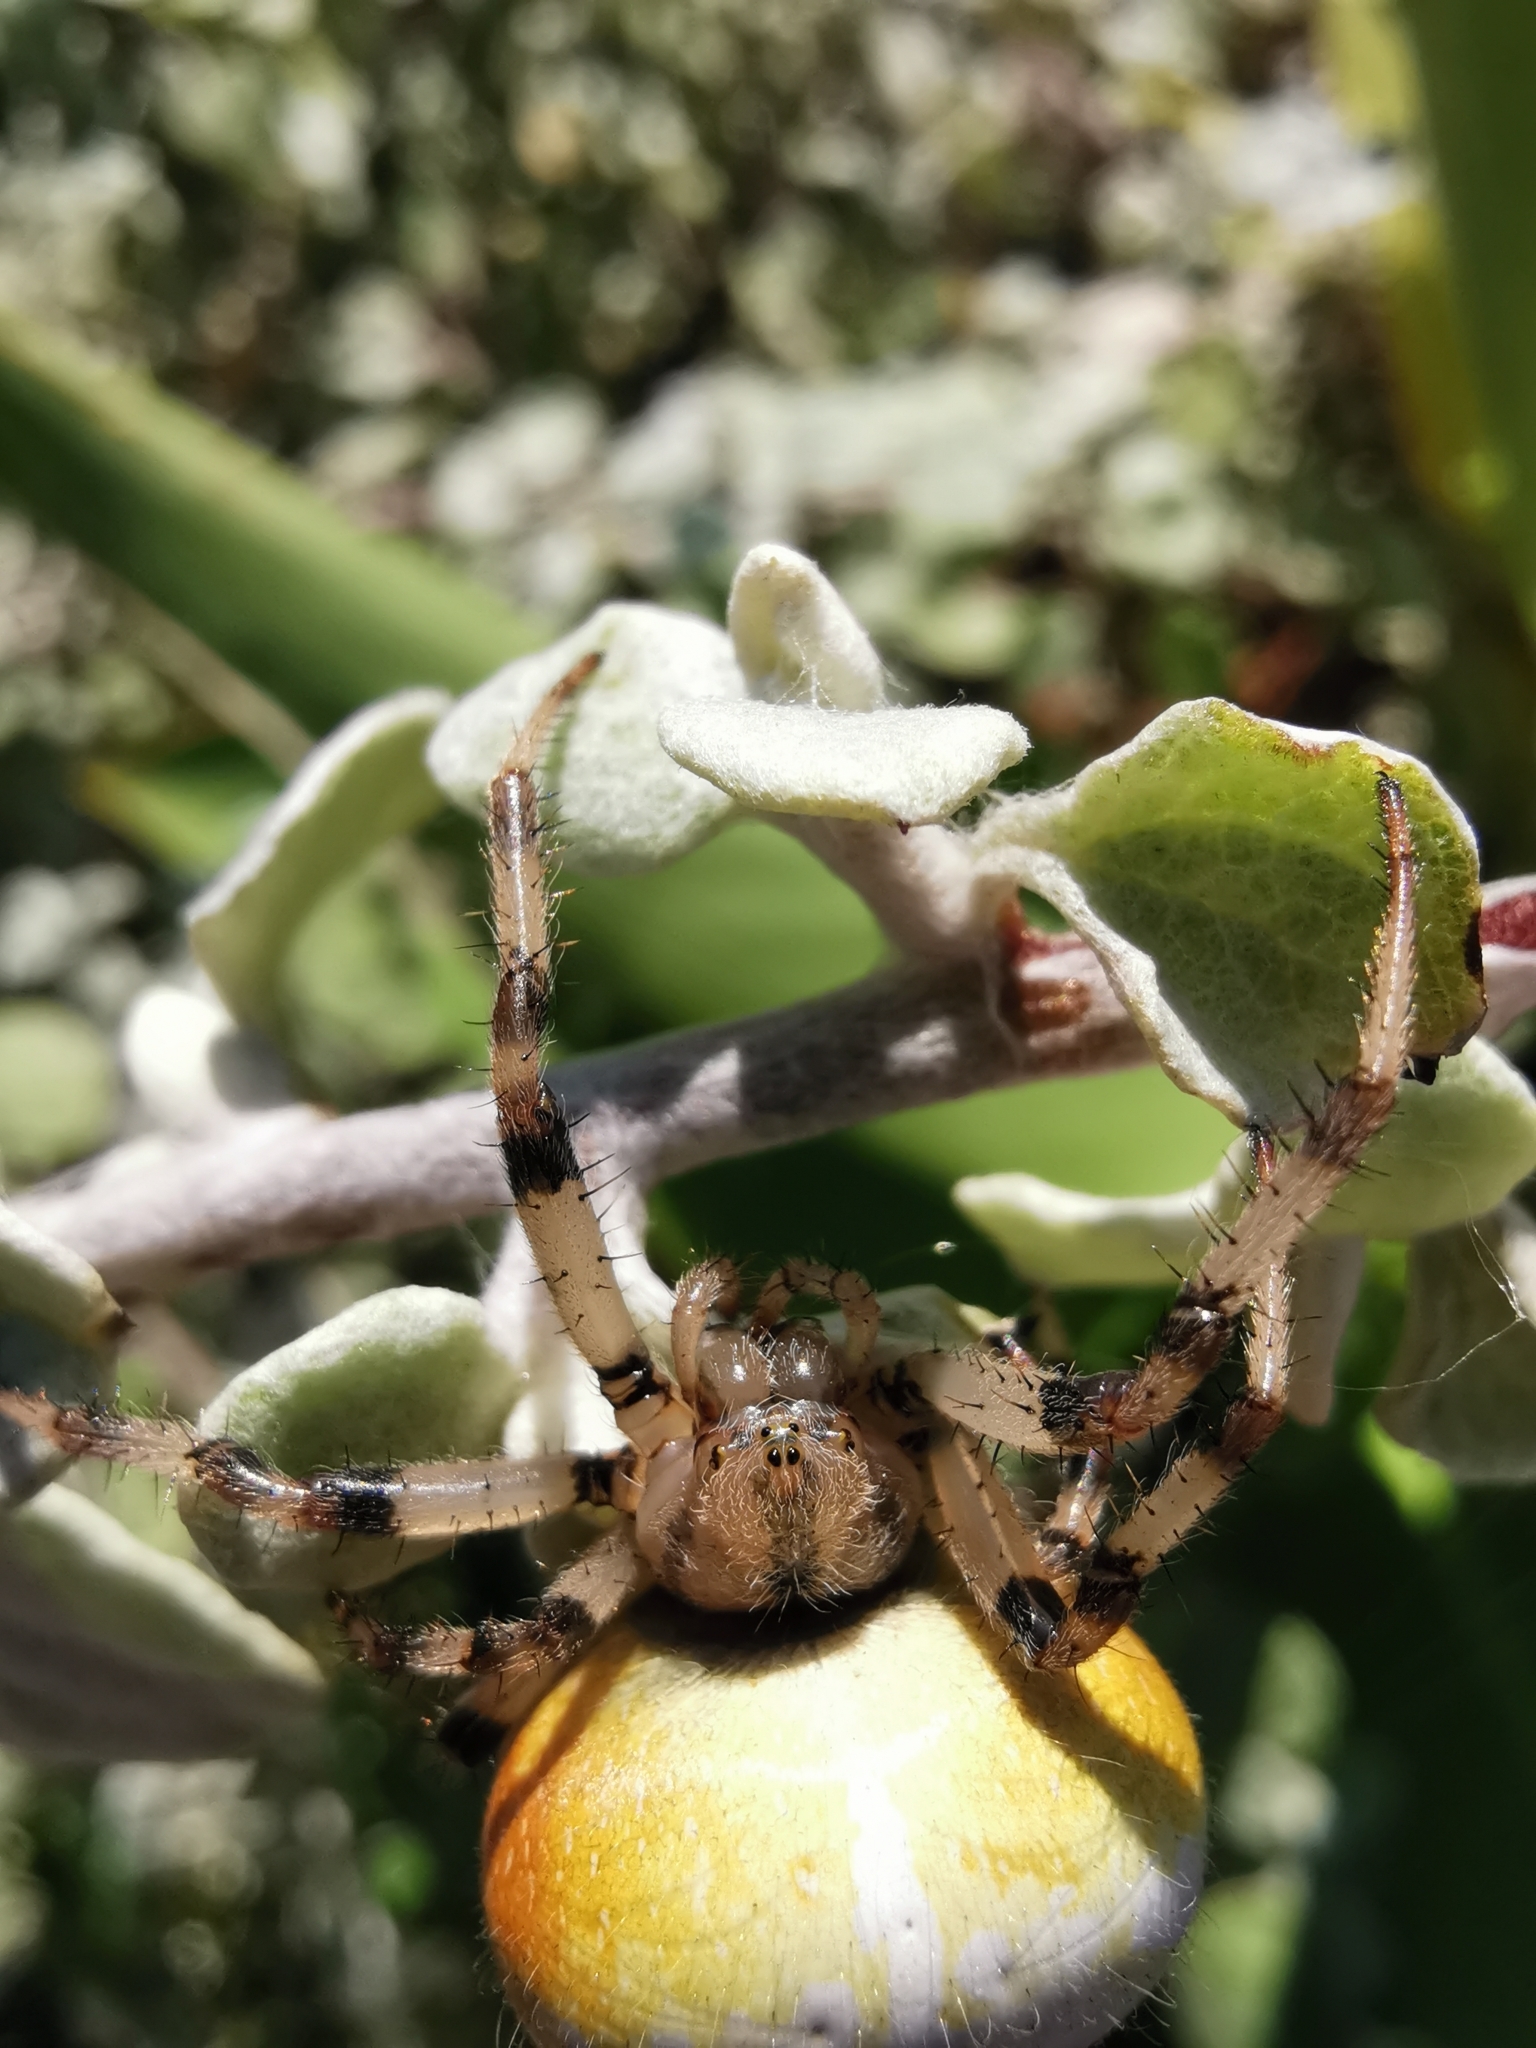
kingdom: Animalia
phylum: Arthropoda
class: Arachnida
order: Araneae
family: Araneidae
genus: Araneus
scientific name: Araneus quadratus
